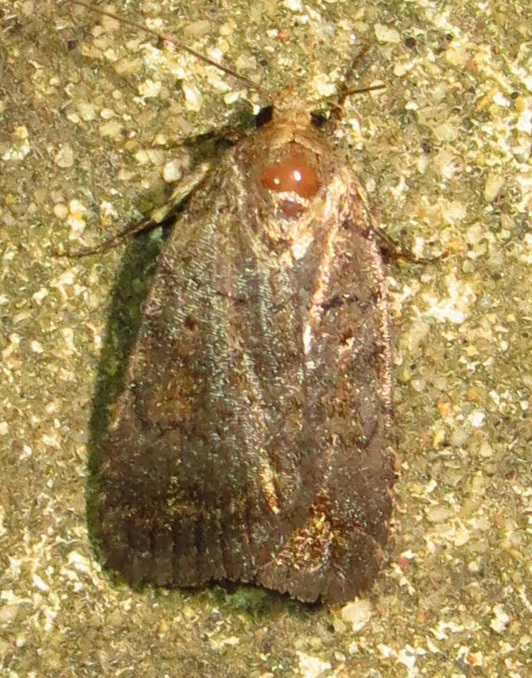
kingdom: Animalia
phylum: Arthropoda
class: Insecta
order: Lepidoptera
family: Noctuidae
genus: Athetis
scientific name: Athetis tarda
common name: Slowpoke moth
